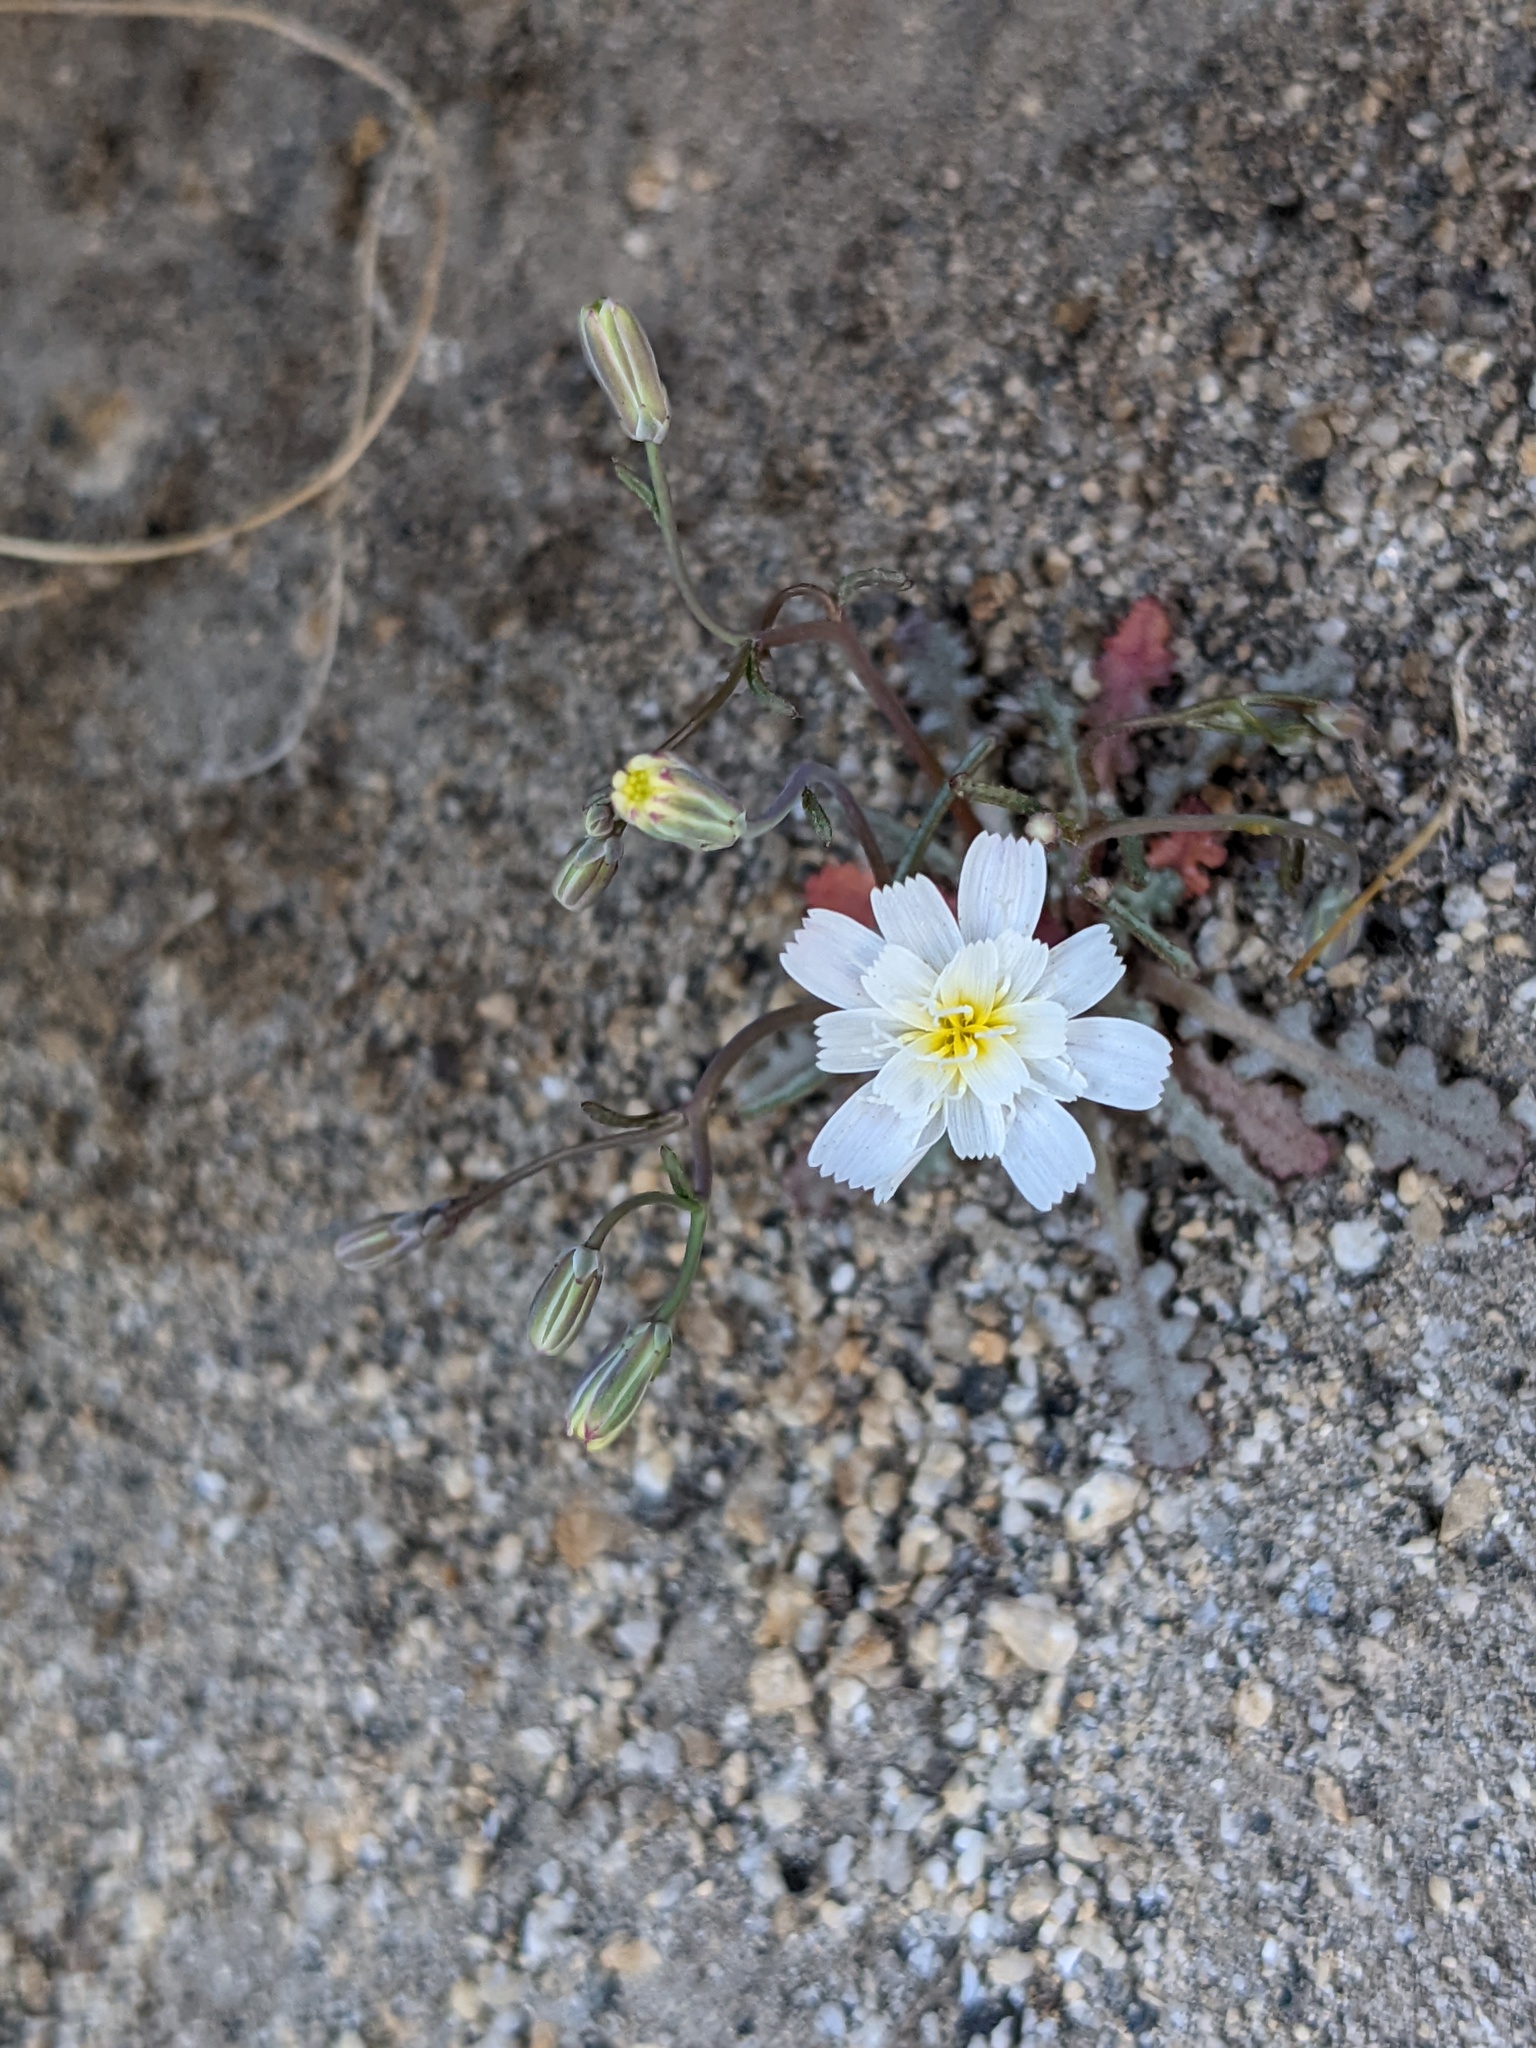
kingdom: Plantae
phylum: Tracheophyta
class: Magnoliopsida
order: Asterales
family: Asteraceae
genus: Malacothrix
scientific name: Malacothrix floccifera
